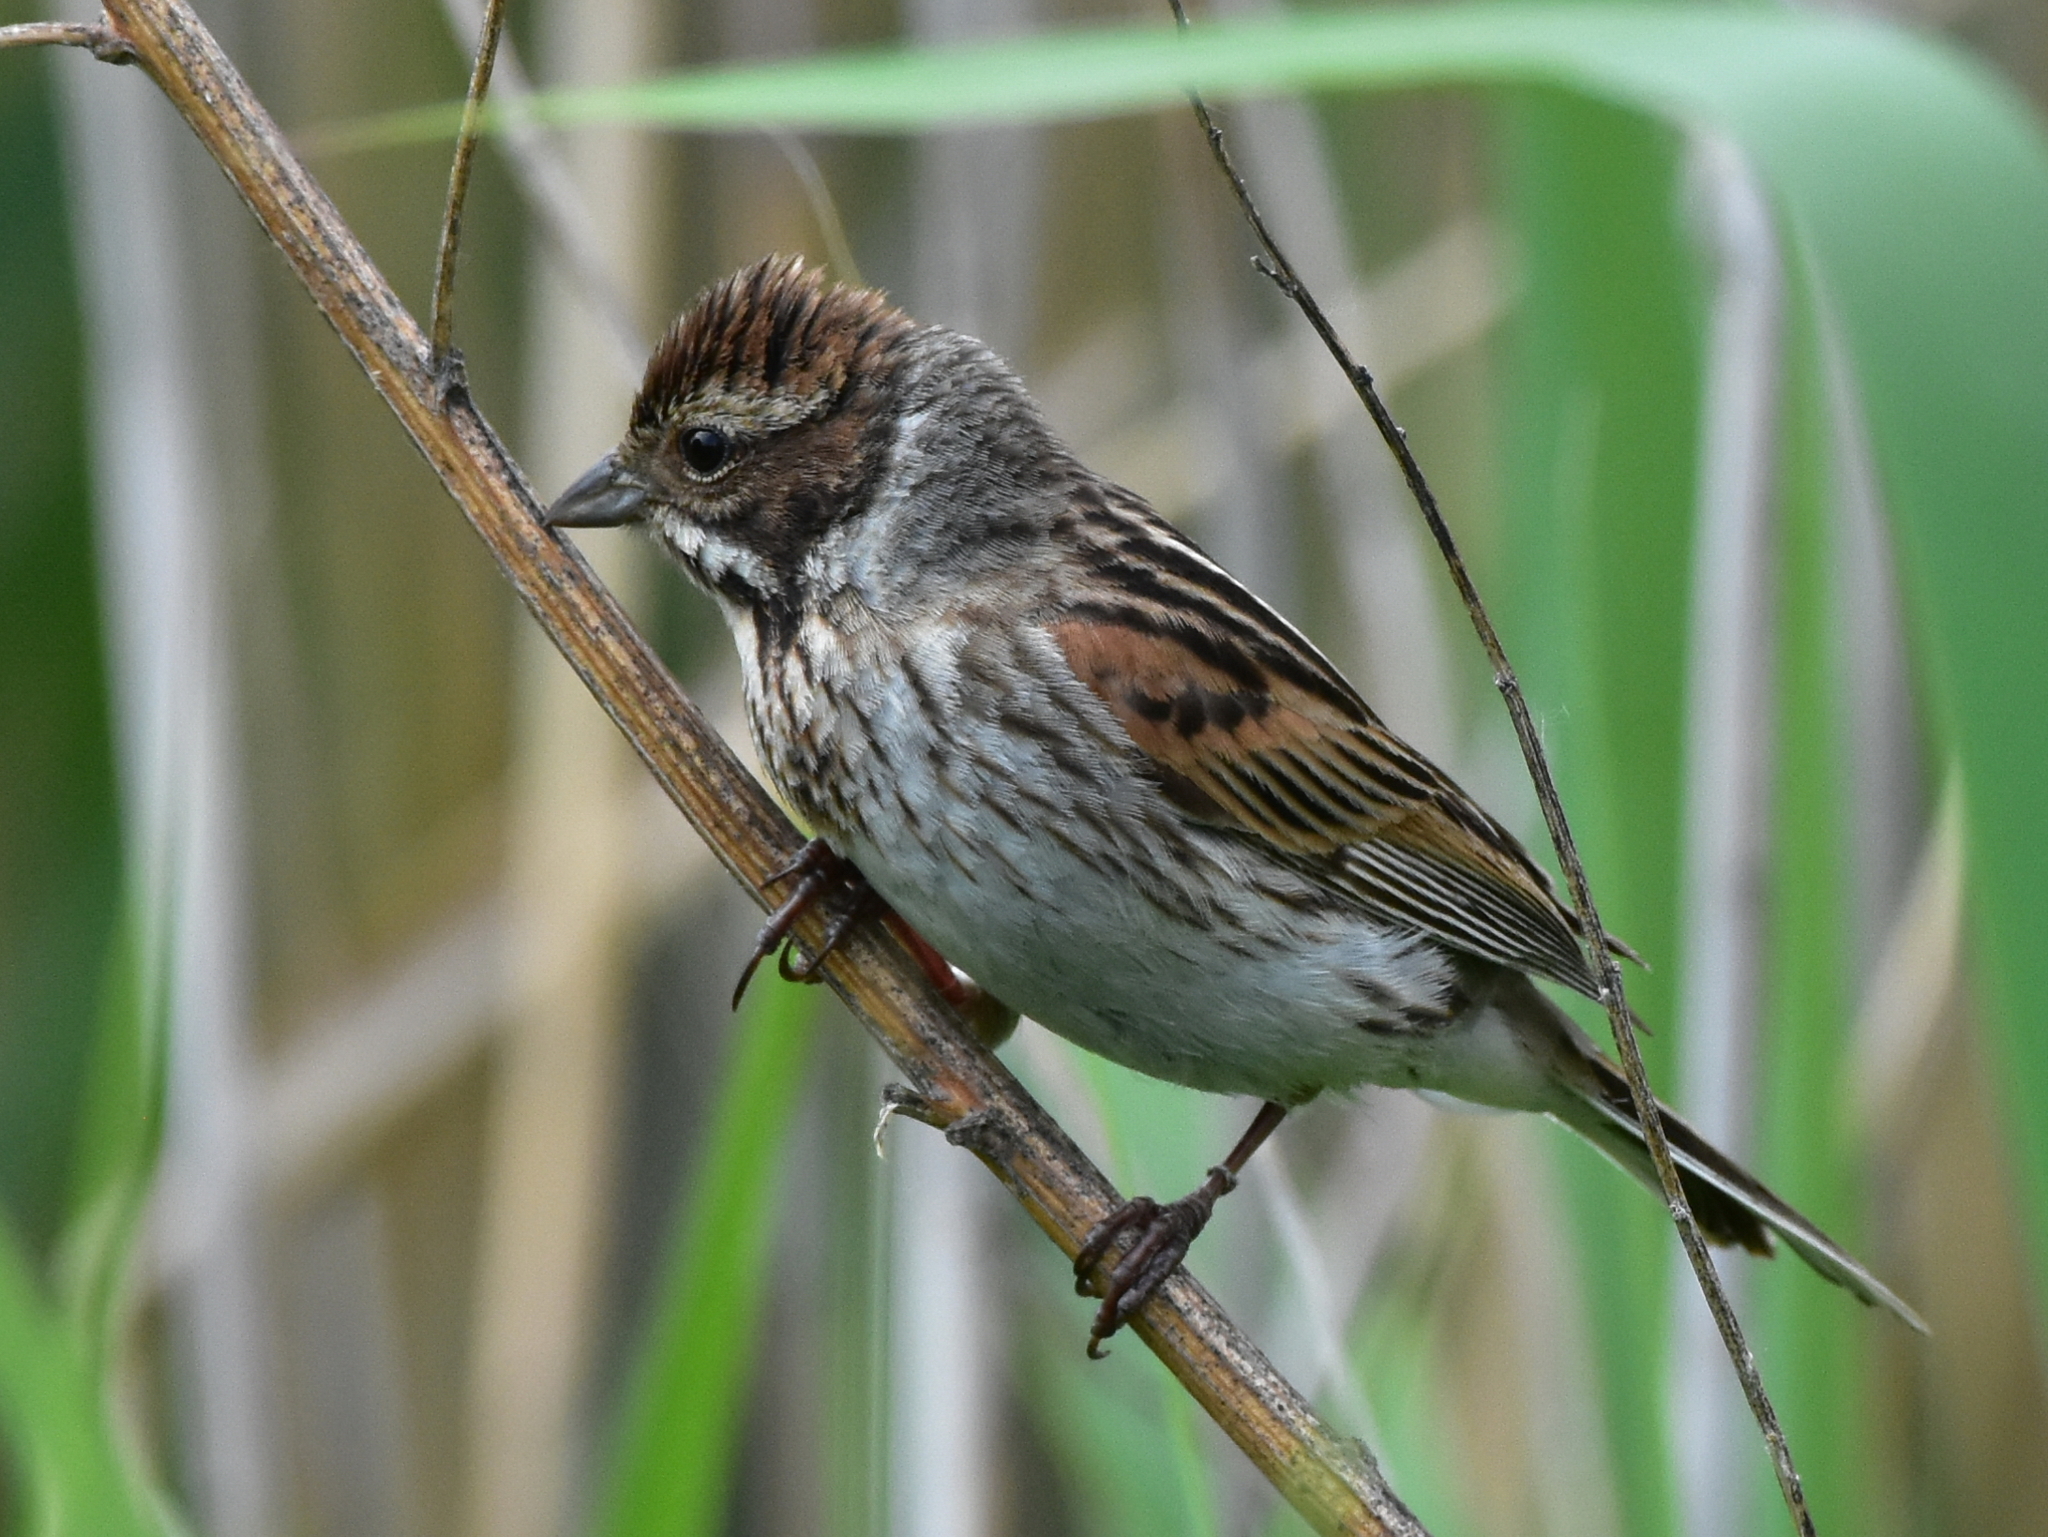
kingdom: Animalia
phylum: Chordata
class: Aves
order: Passeriformes
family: Emberizidae
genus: Emberiza
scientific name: Emberiza schoeniclus
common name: Reed bunting
